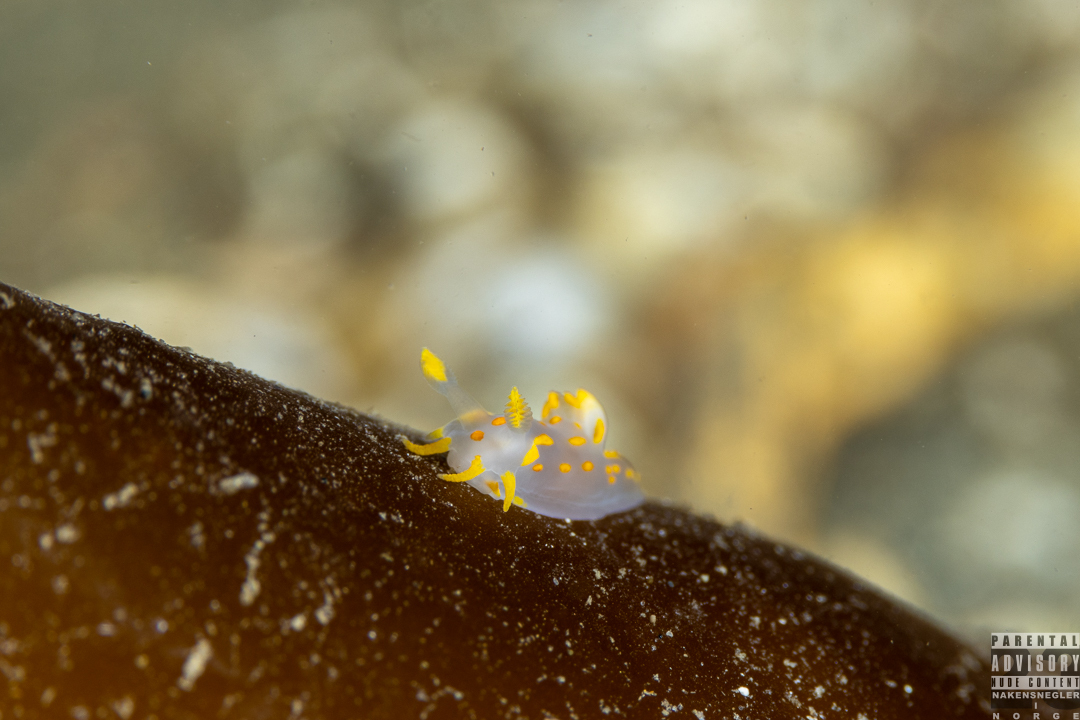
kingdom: Animalia
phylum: Mollusca
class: Gastropoda
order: Nudibranchia
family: Polyceridae
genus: Polycera
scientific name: Polycera quadrilineata
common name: Four-striped polycera
